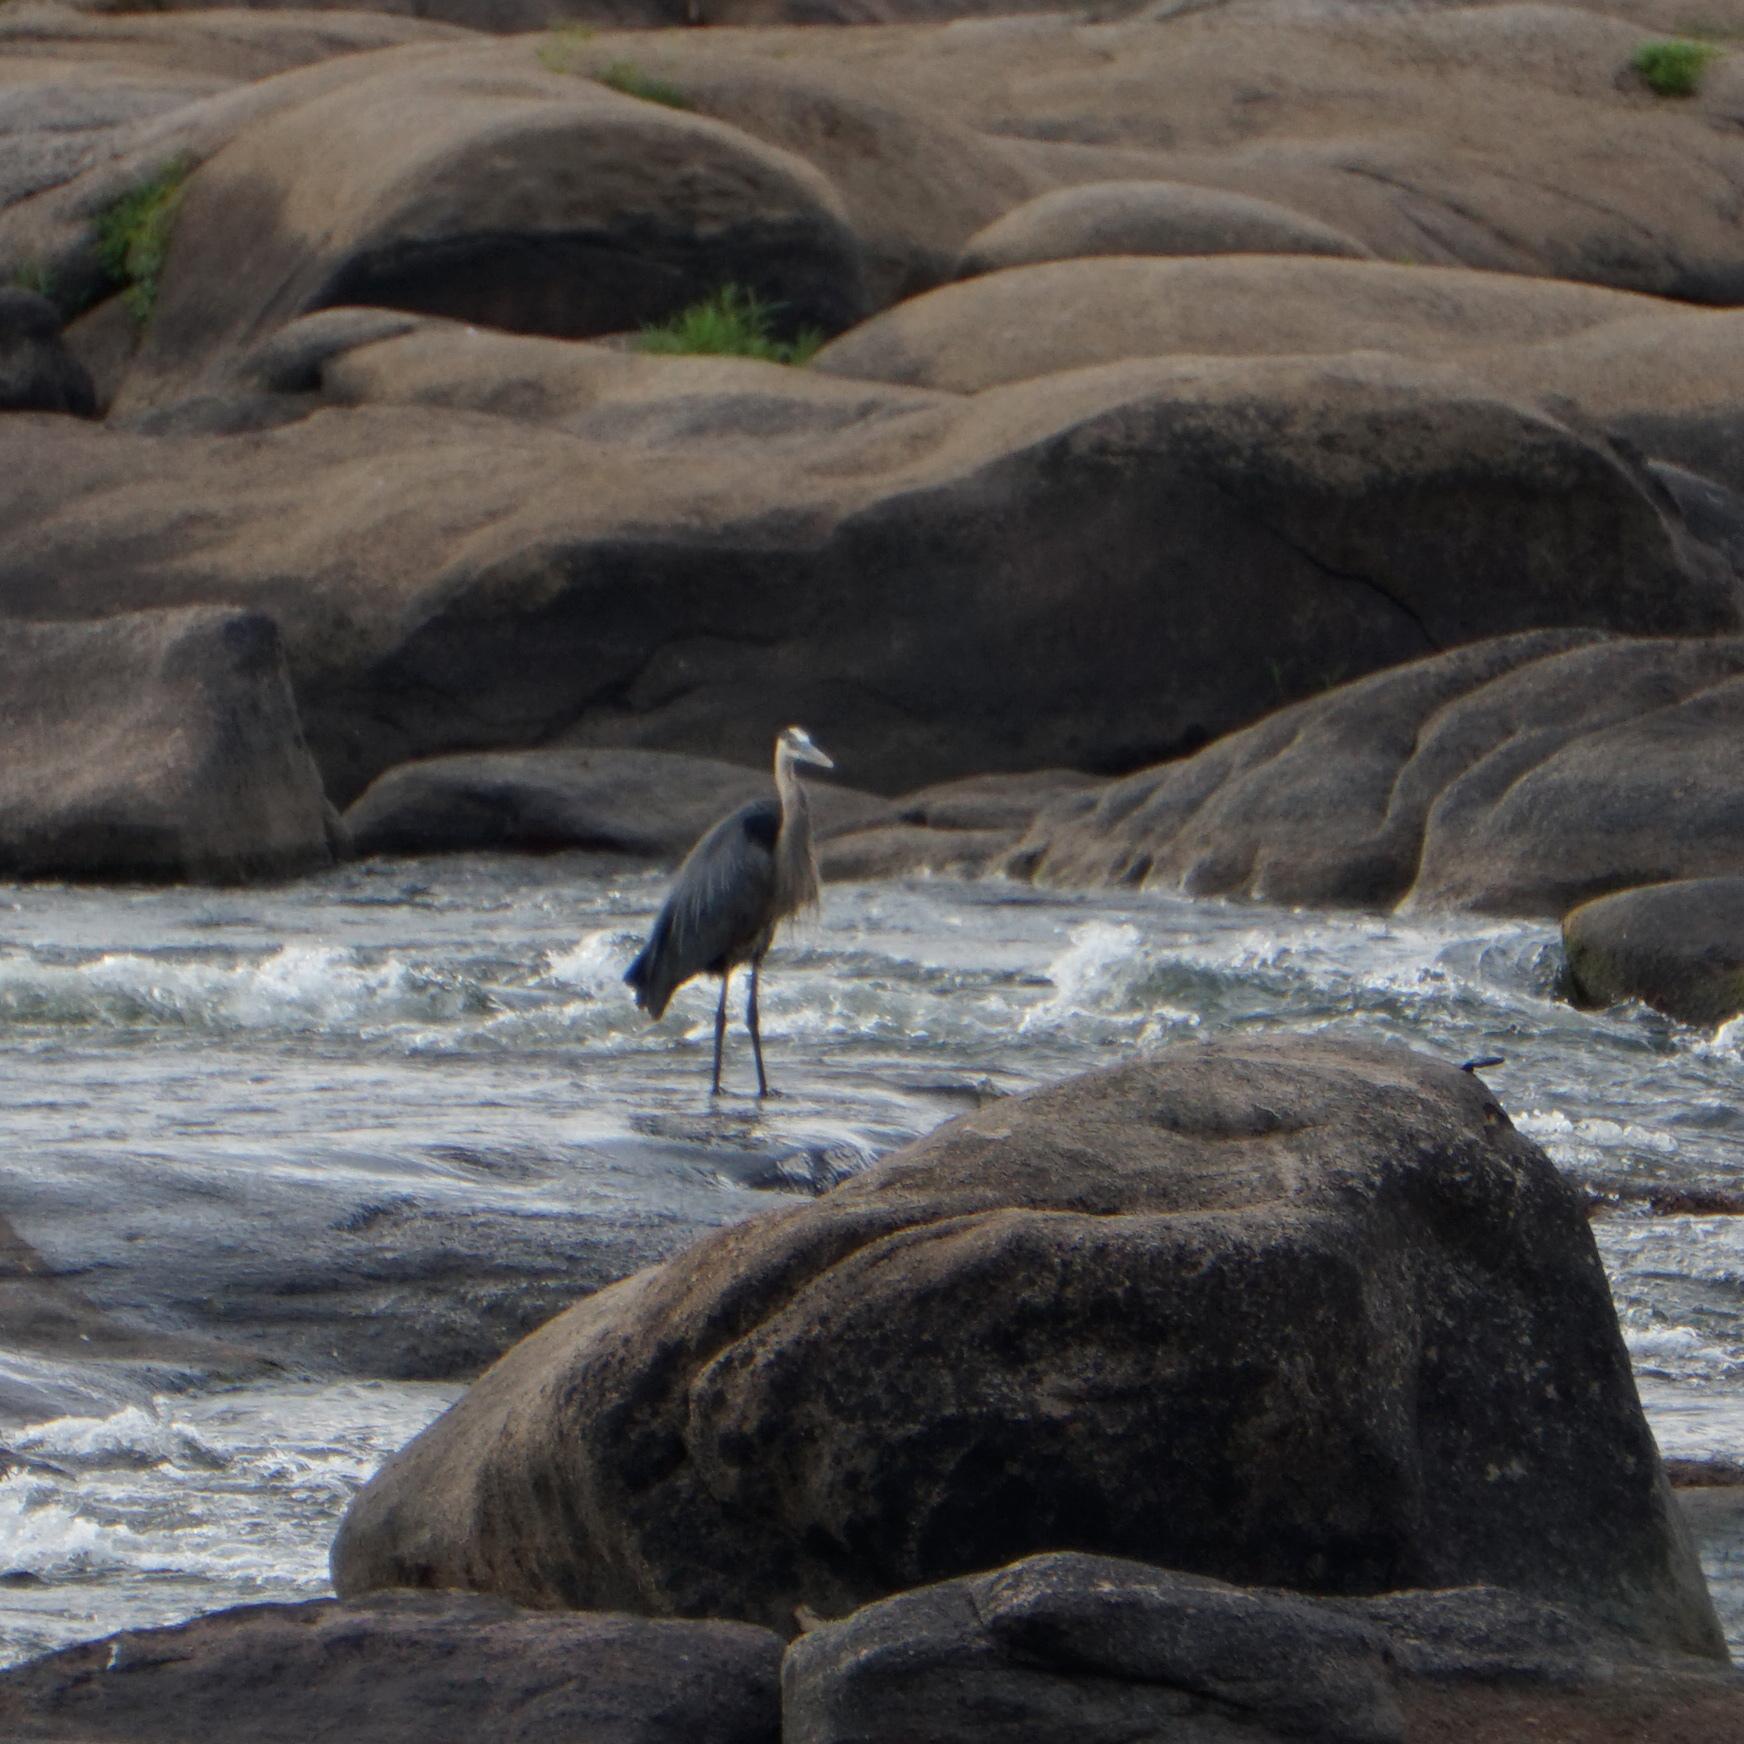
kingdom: Animalia
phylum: Chordata
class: Aves
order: Pelecaniformes
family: Ardeidae
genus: Ardea
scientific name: Ardea herodias
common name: Great blue heron
